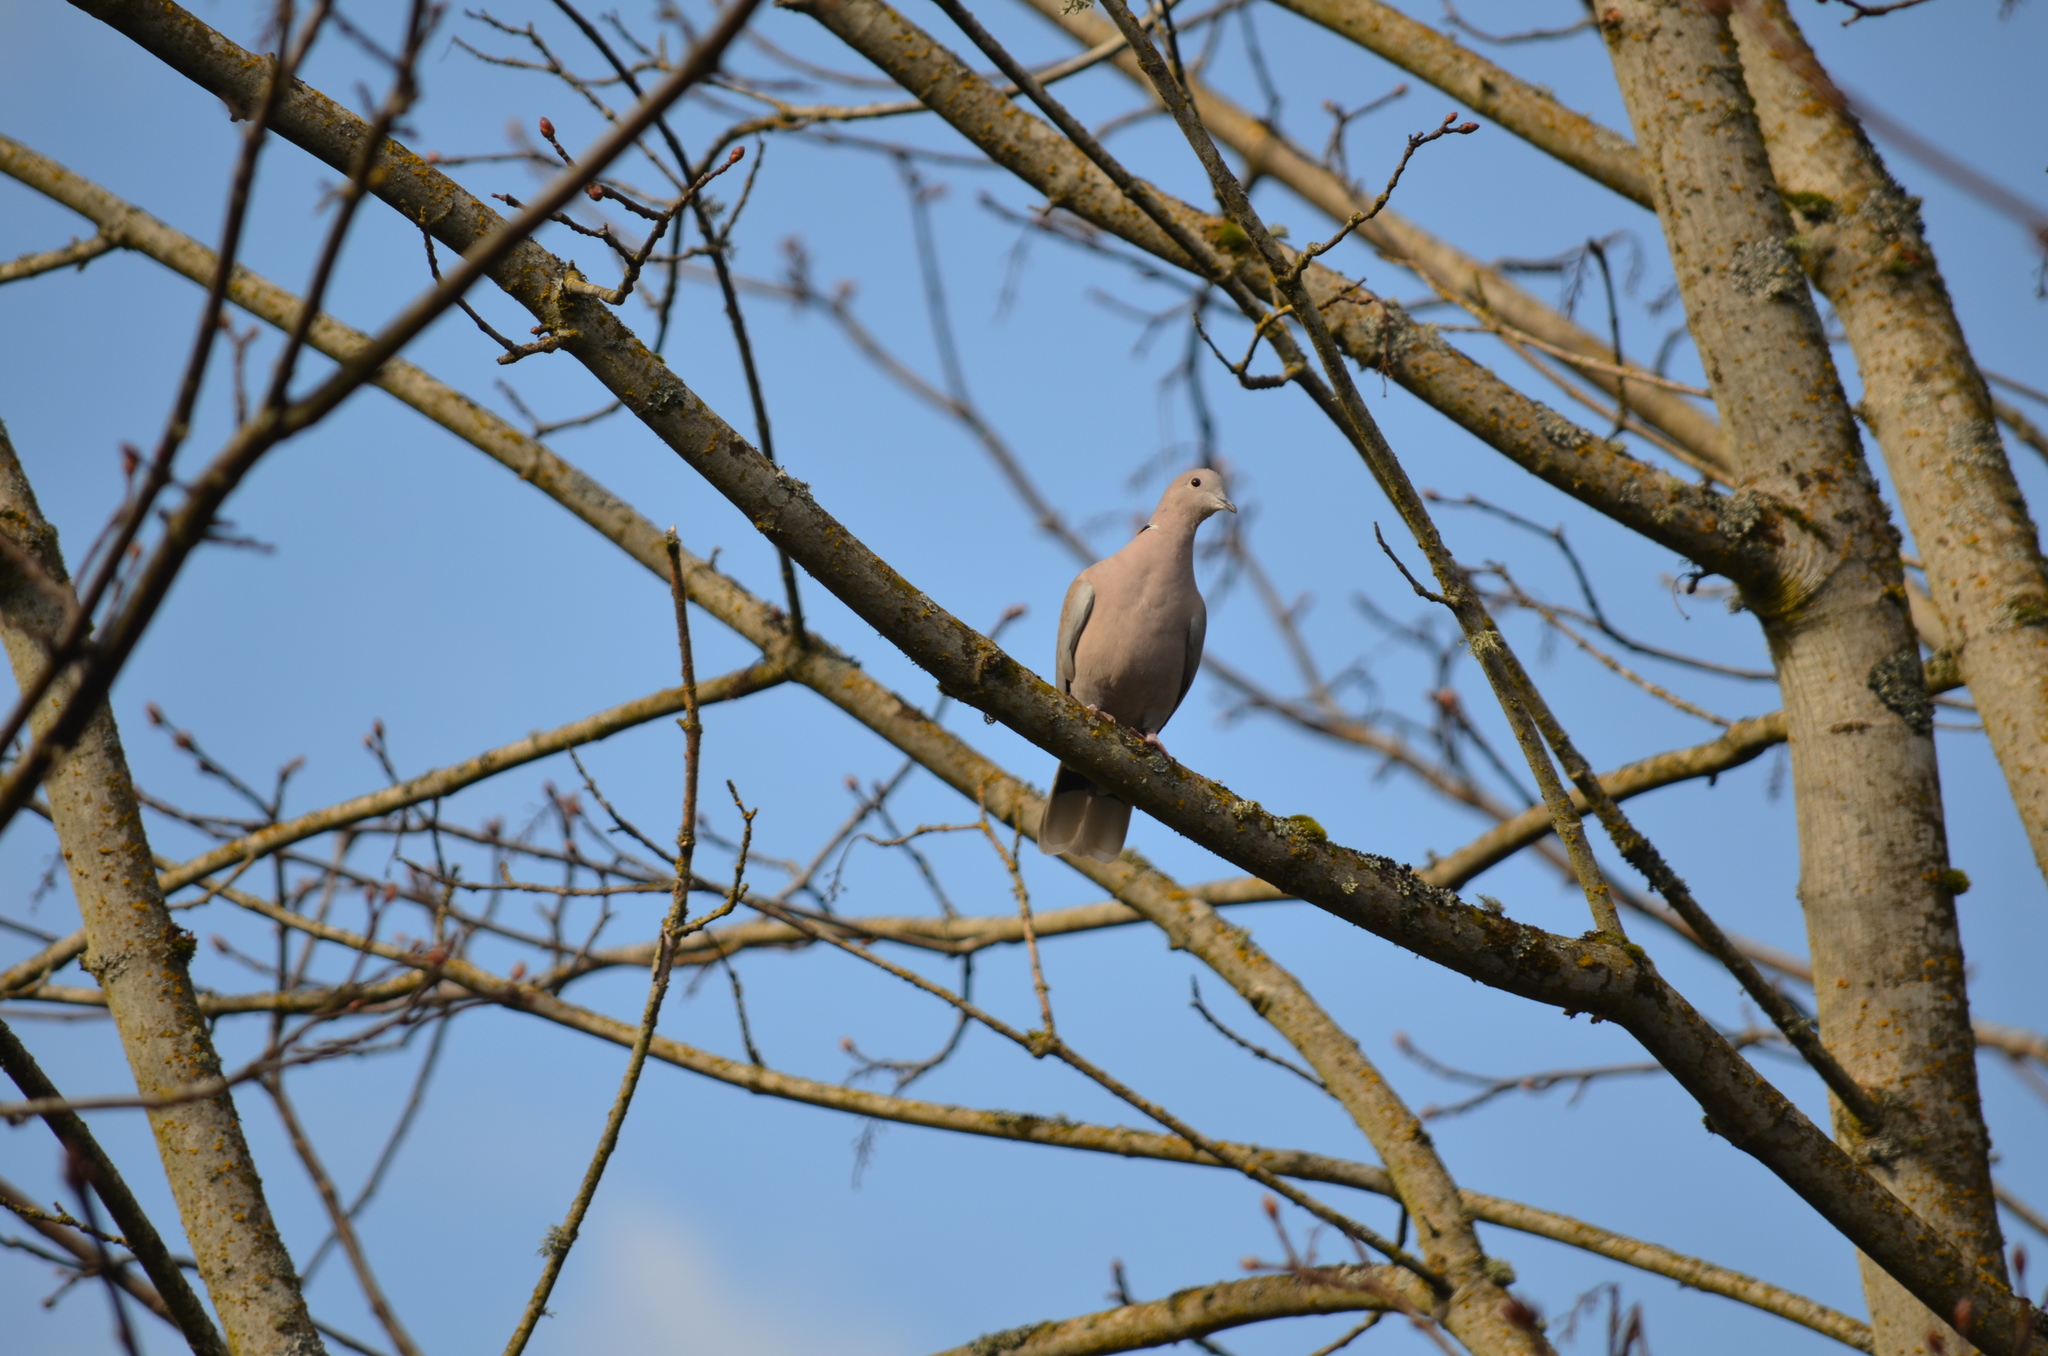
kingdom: Animalia
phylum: Chordata
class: Aves
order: Columbiformes
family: Columbidae
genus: Streptopelia
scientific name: Streptopelia decaocto
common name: Eurasian collared dove
